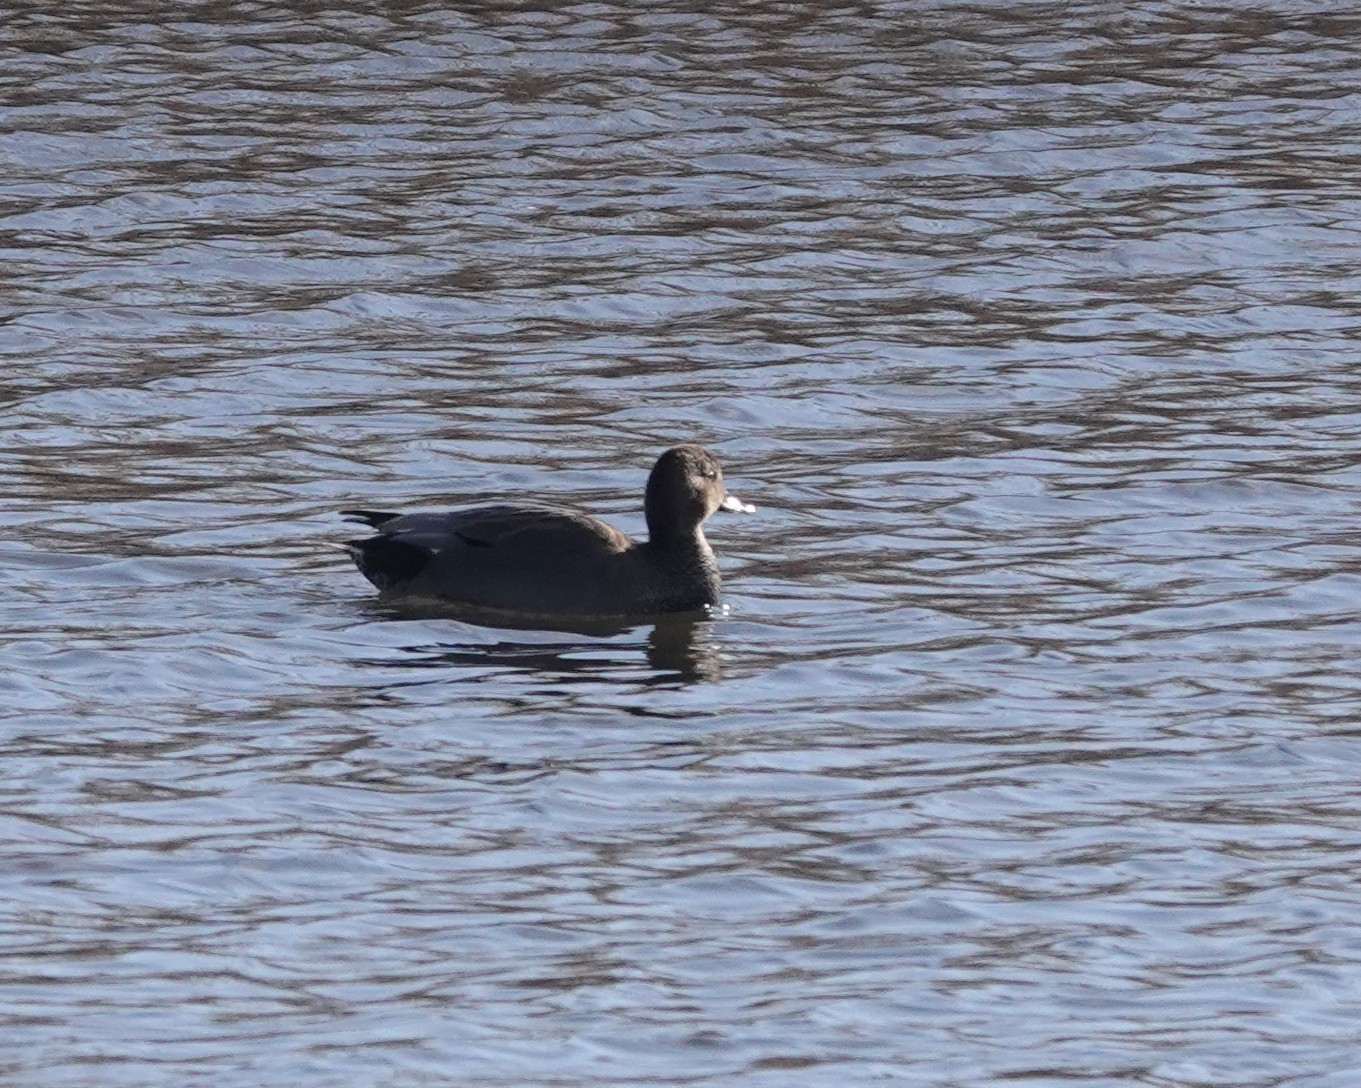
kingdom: Animalia
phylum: Chordata
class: Aves
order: Anseriformes
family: Anatidae
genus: Mareca
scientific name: Mareca strepera
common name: Gadwall
